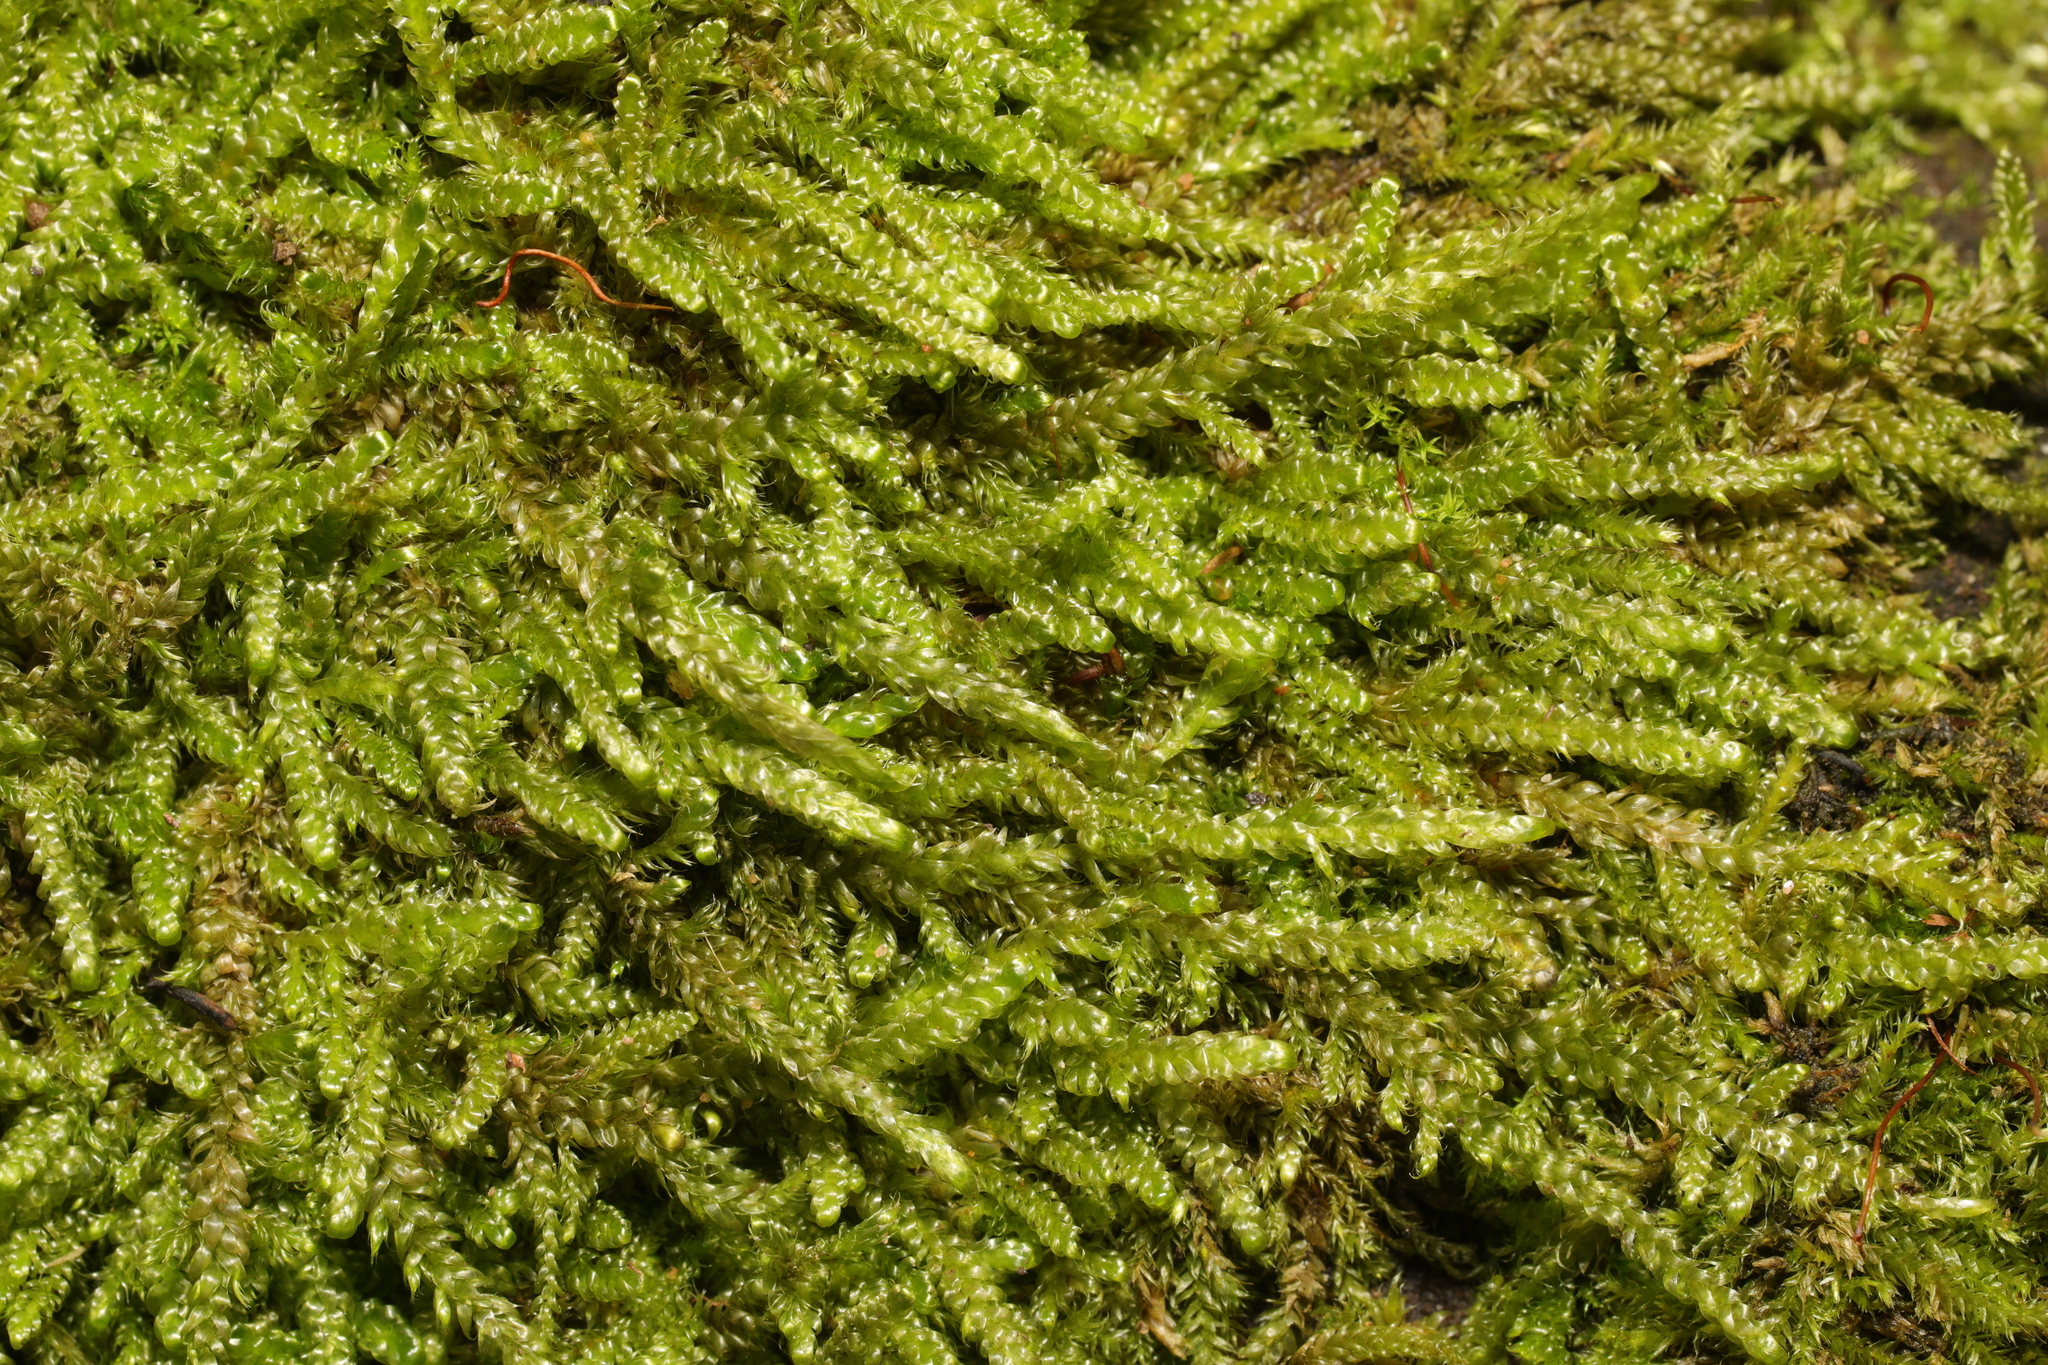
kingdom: Plantae
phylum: Bryophyta
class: Bryopsida
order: Hypnales
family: Hypnaceae
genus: Hypnum
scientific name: Hypnum cupressiforme
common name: Cypress-leaved plait-moss
